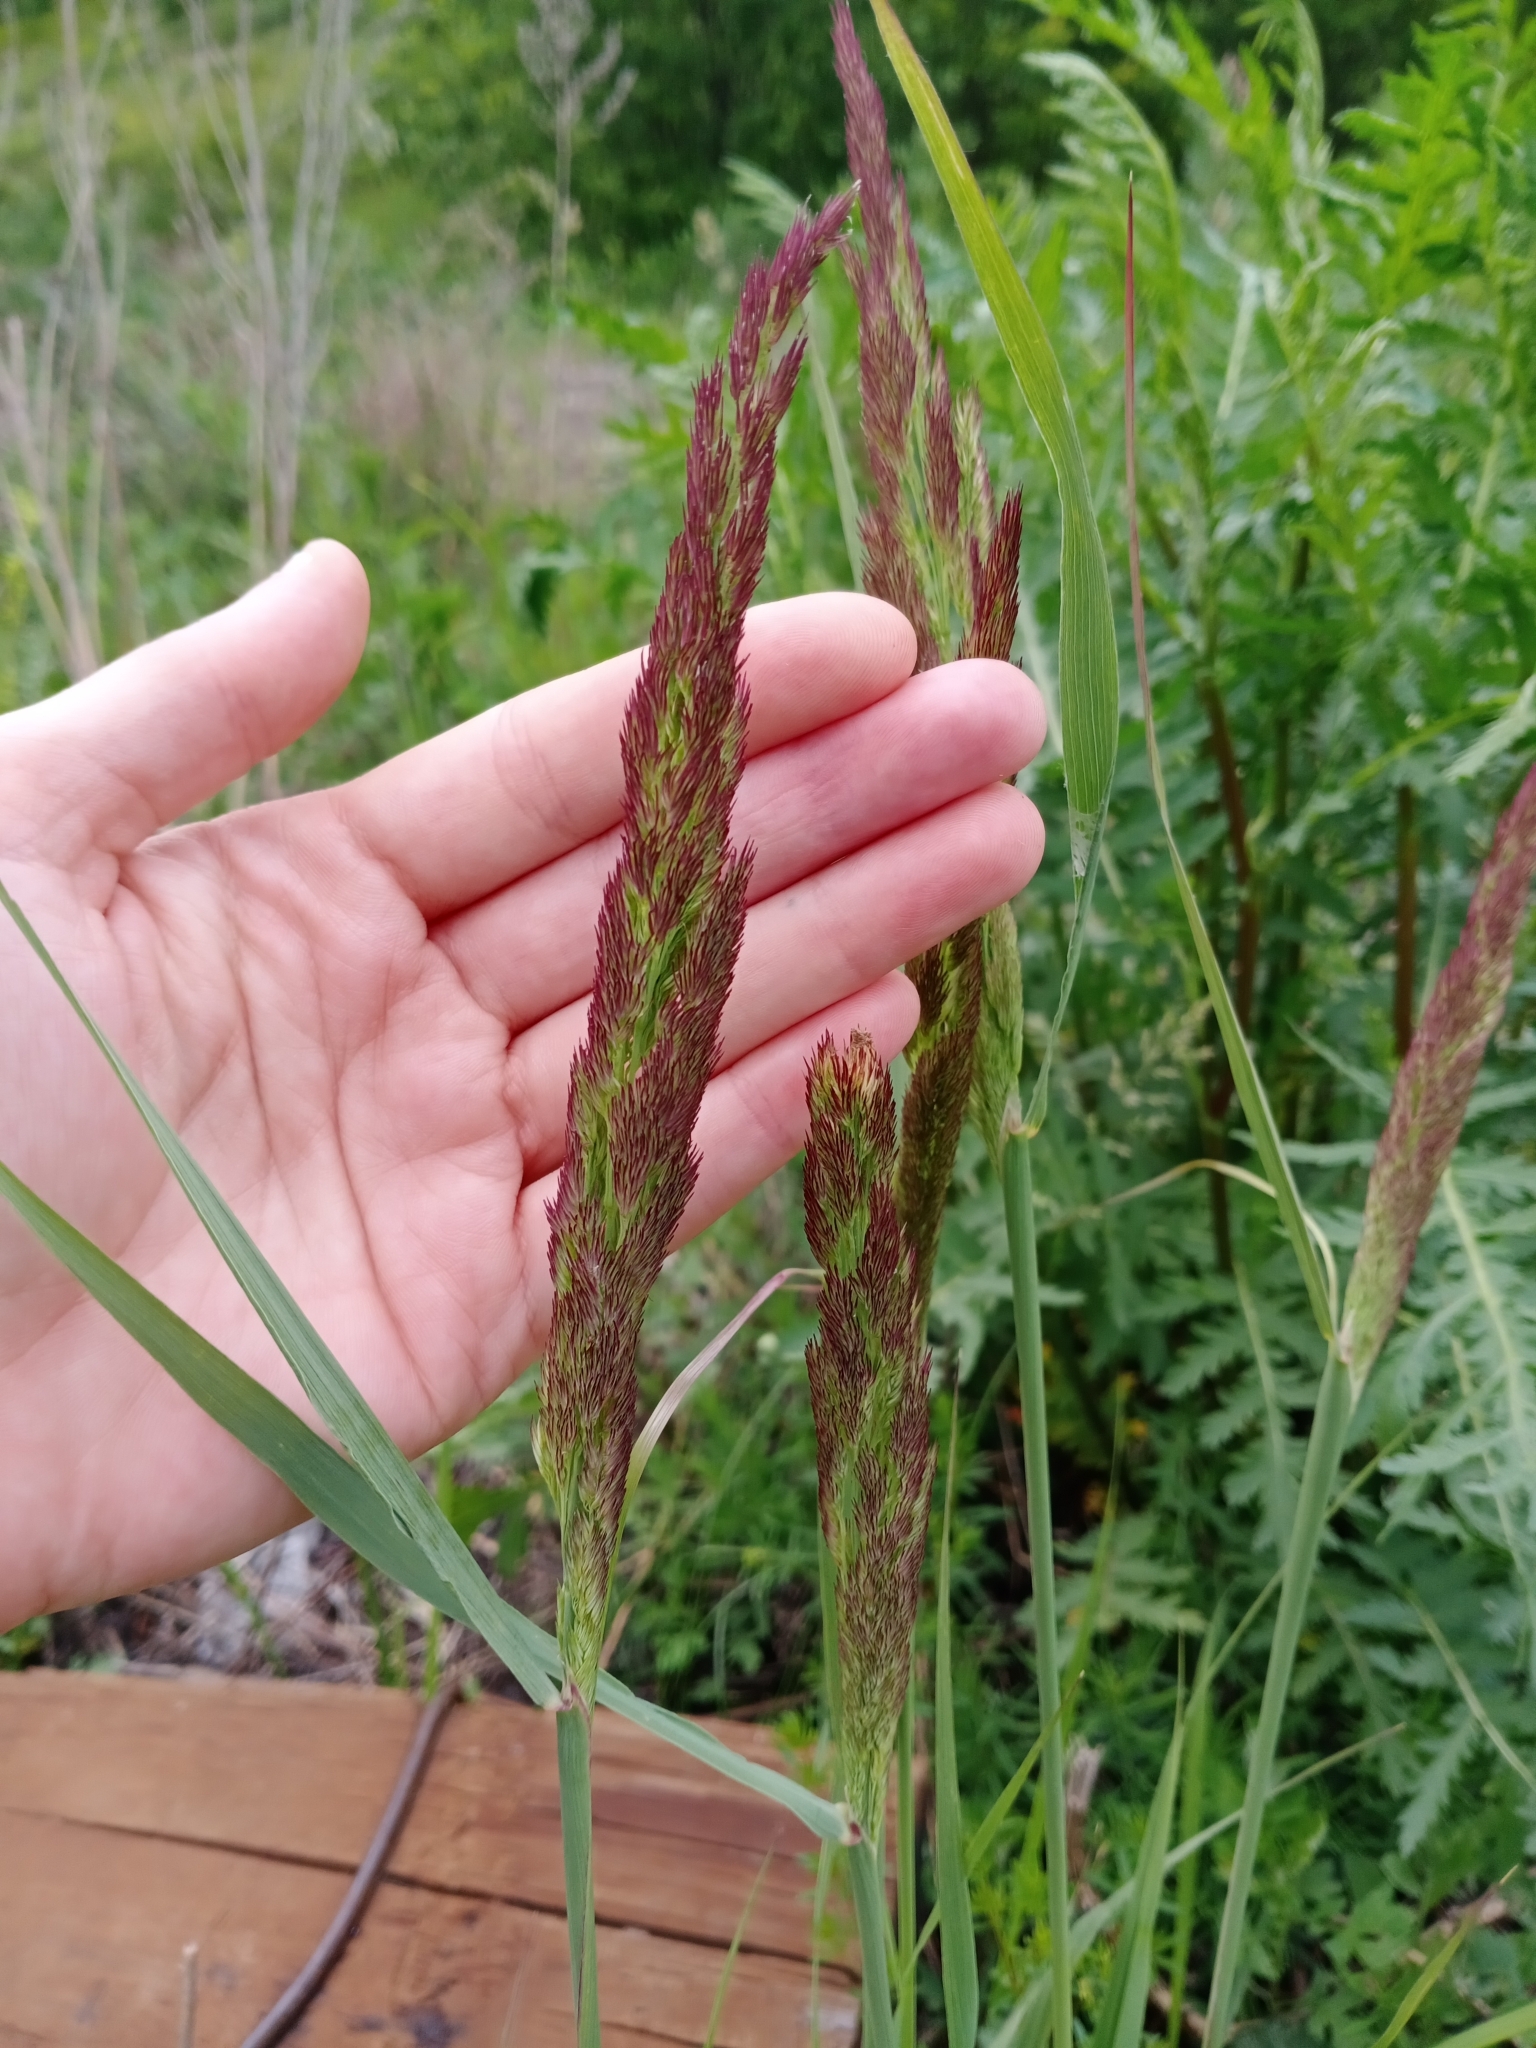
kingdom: Plantae
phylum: Tracheophyta
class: Liliopsida
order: Poales
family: Poaceae
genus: Calamagrostis
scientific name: Calamagrostis epigejos
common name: Wood small-reed
